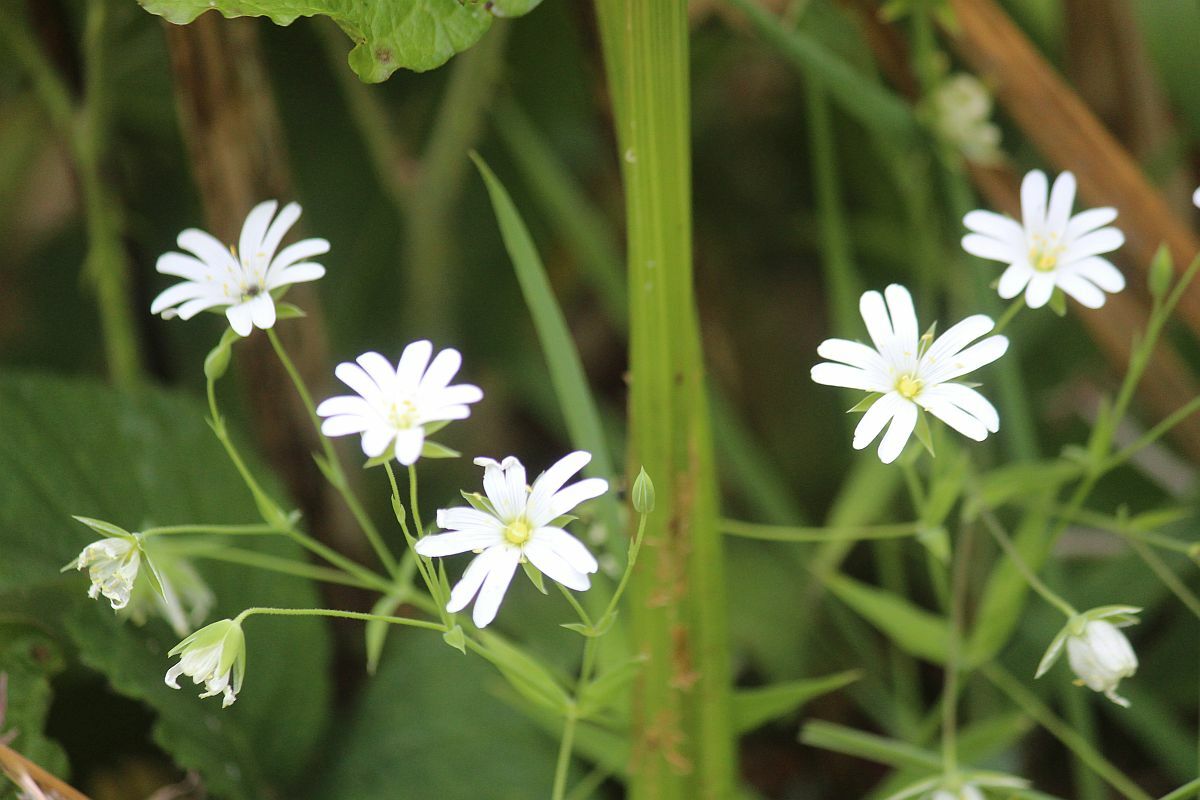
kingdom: Plantae
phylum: Tracheophyta
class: Magnoliopsida
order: Caryophyllales
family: Caryophyllaceae
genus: Rabelera
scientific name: Rabelera holostea
